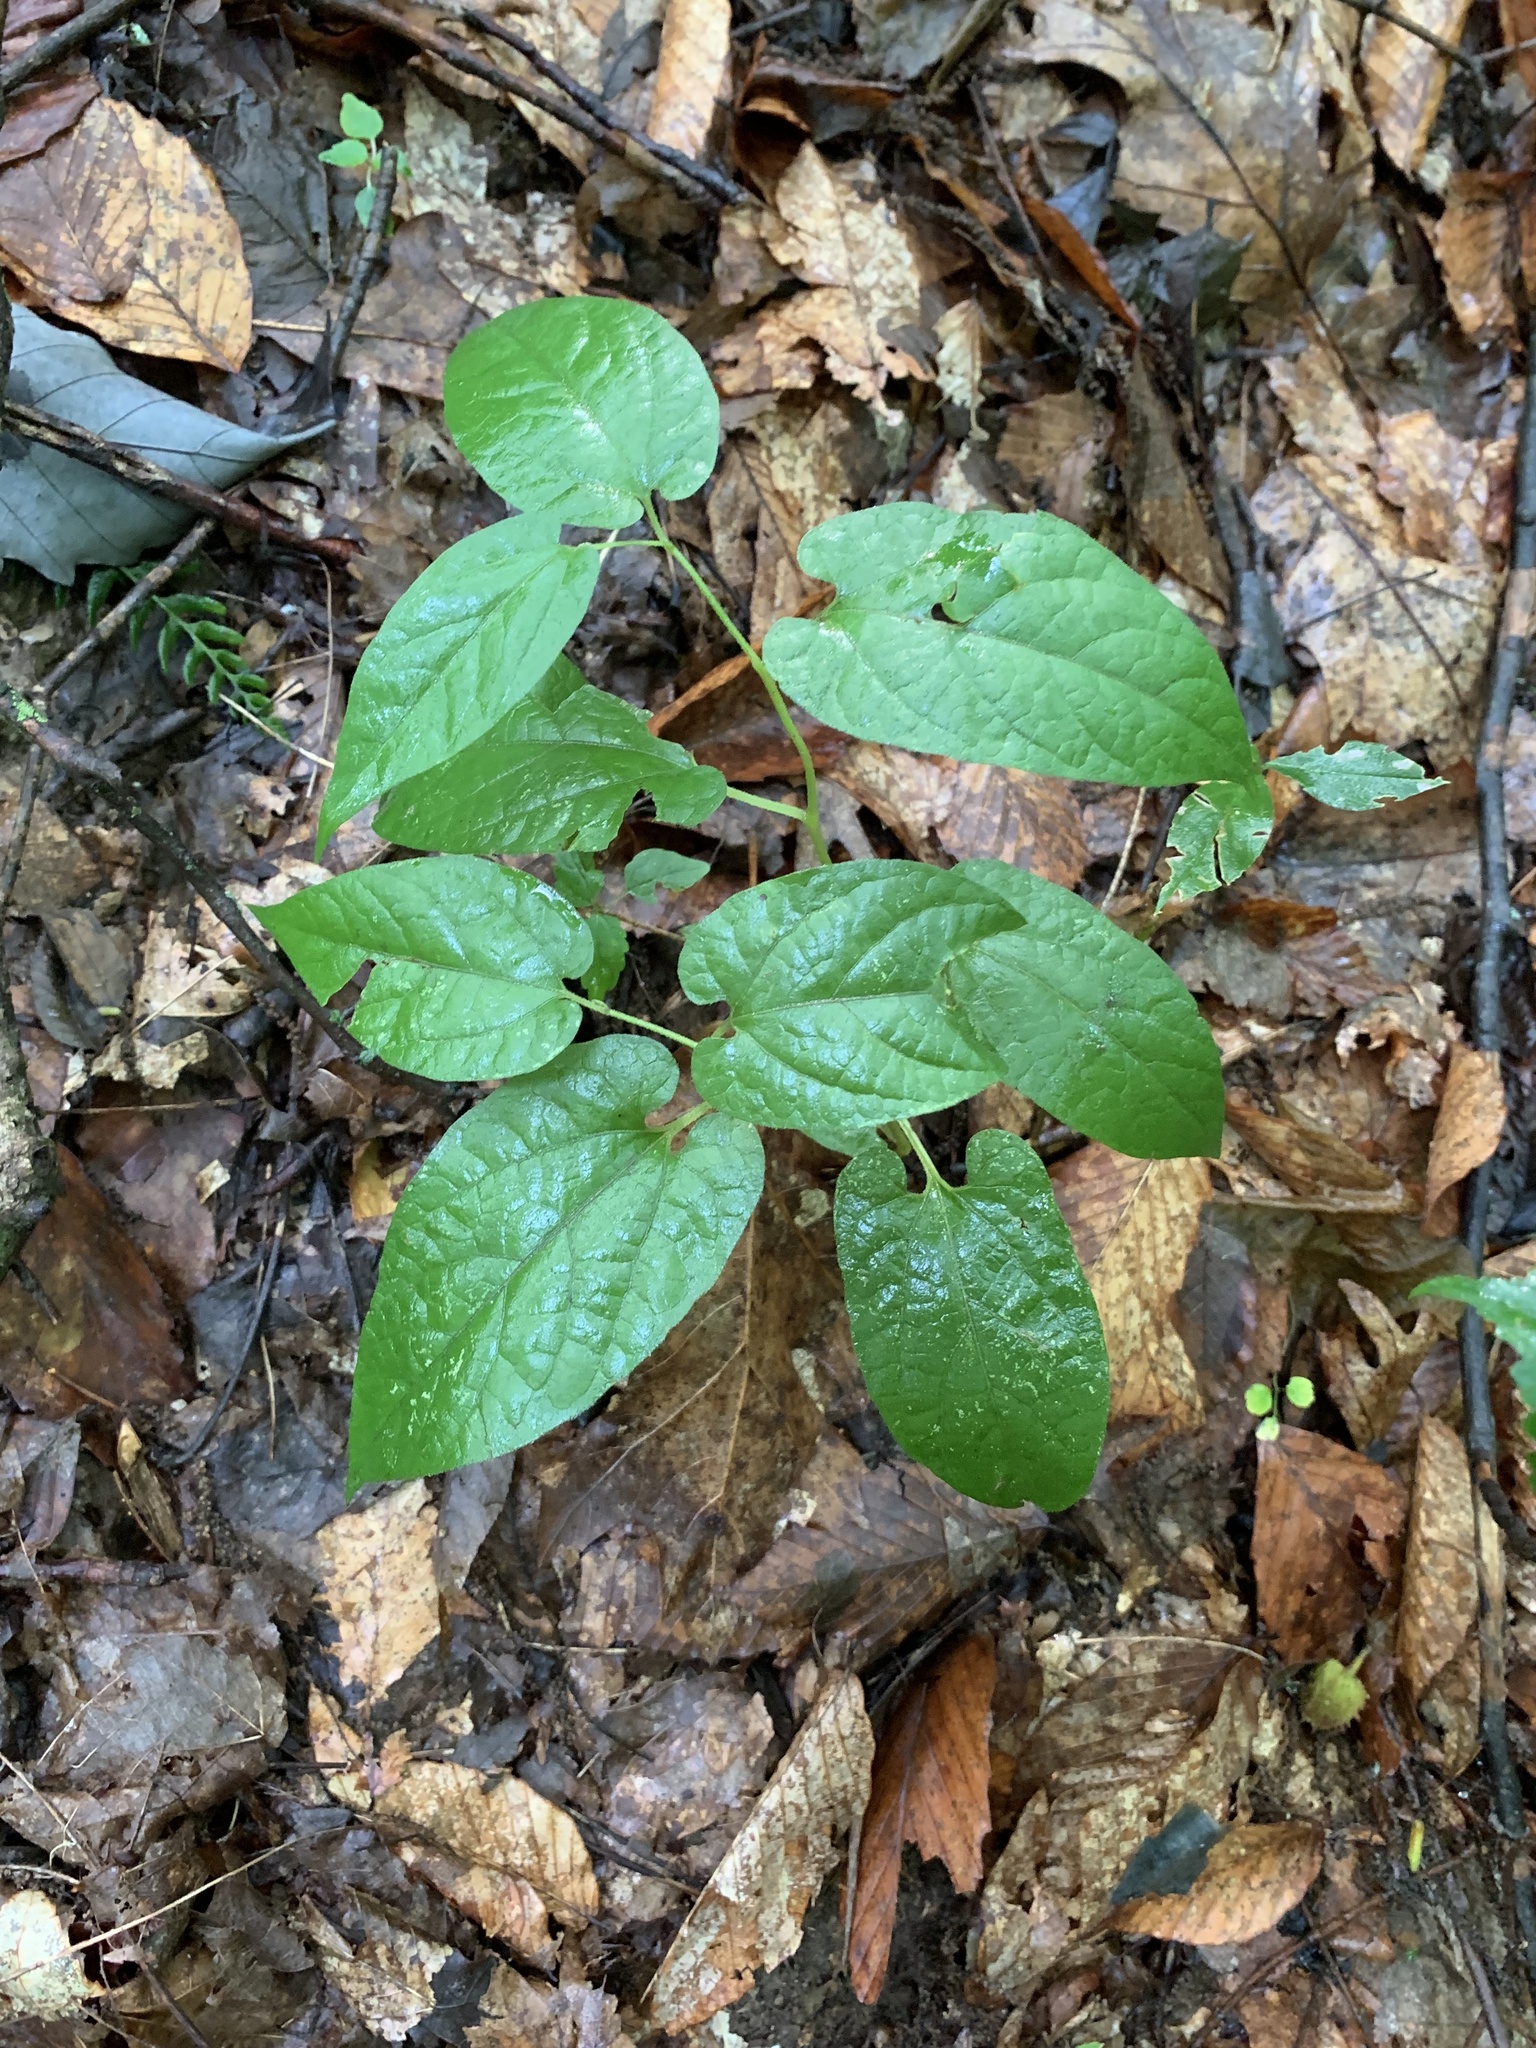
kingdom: Plantae
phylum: Tracheophyta
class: Magnoliopsida
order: Piperales
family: Aristolochiaceae
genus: Endodeca
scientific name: Endodeca serpentaria
